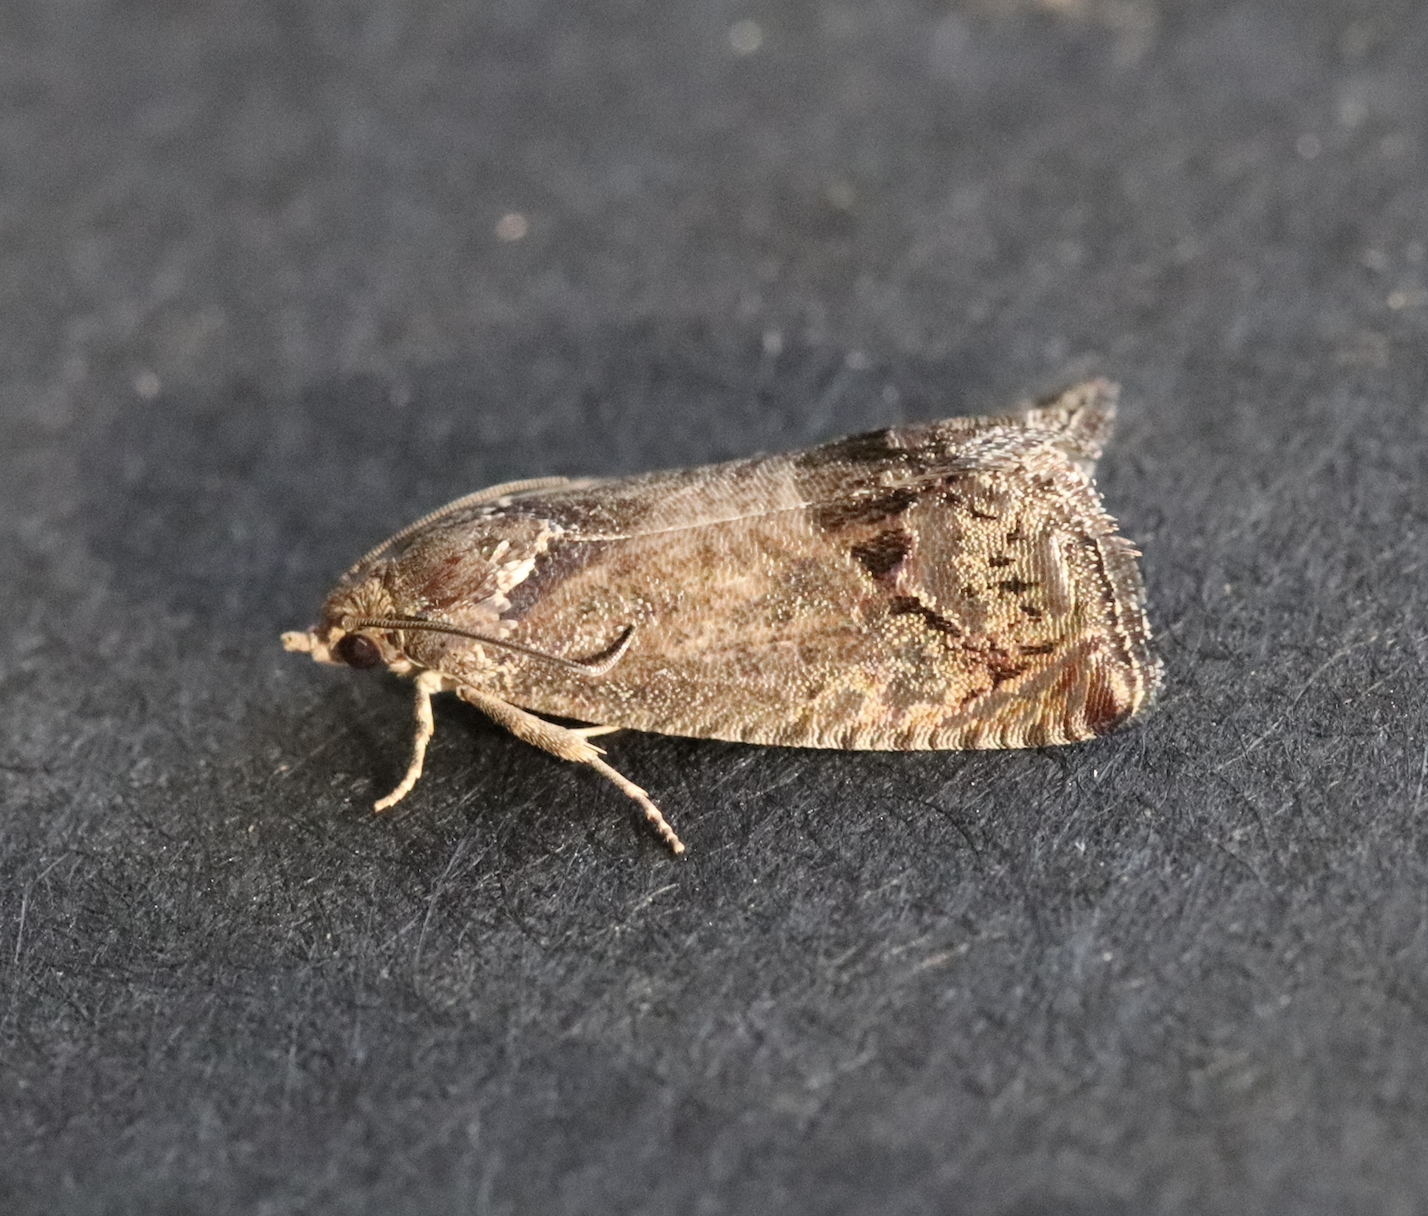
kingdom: Animalia
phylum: Arthropoda
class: Insecta
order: Lepidoptera
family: Tortricidae
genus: Cydia
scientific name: Cydia splendana
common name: De: kastanienwickler, eichenwickler es: oruga de la castaña fr: carpocapse des châtaignes it: cidia o tortrice tardiva delle castagne pt: bichado das castanhas gb: acorn moth, chestnut fruit tortrix
